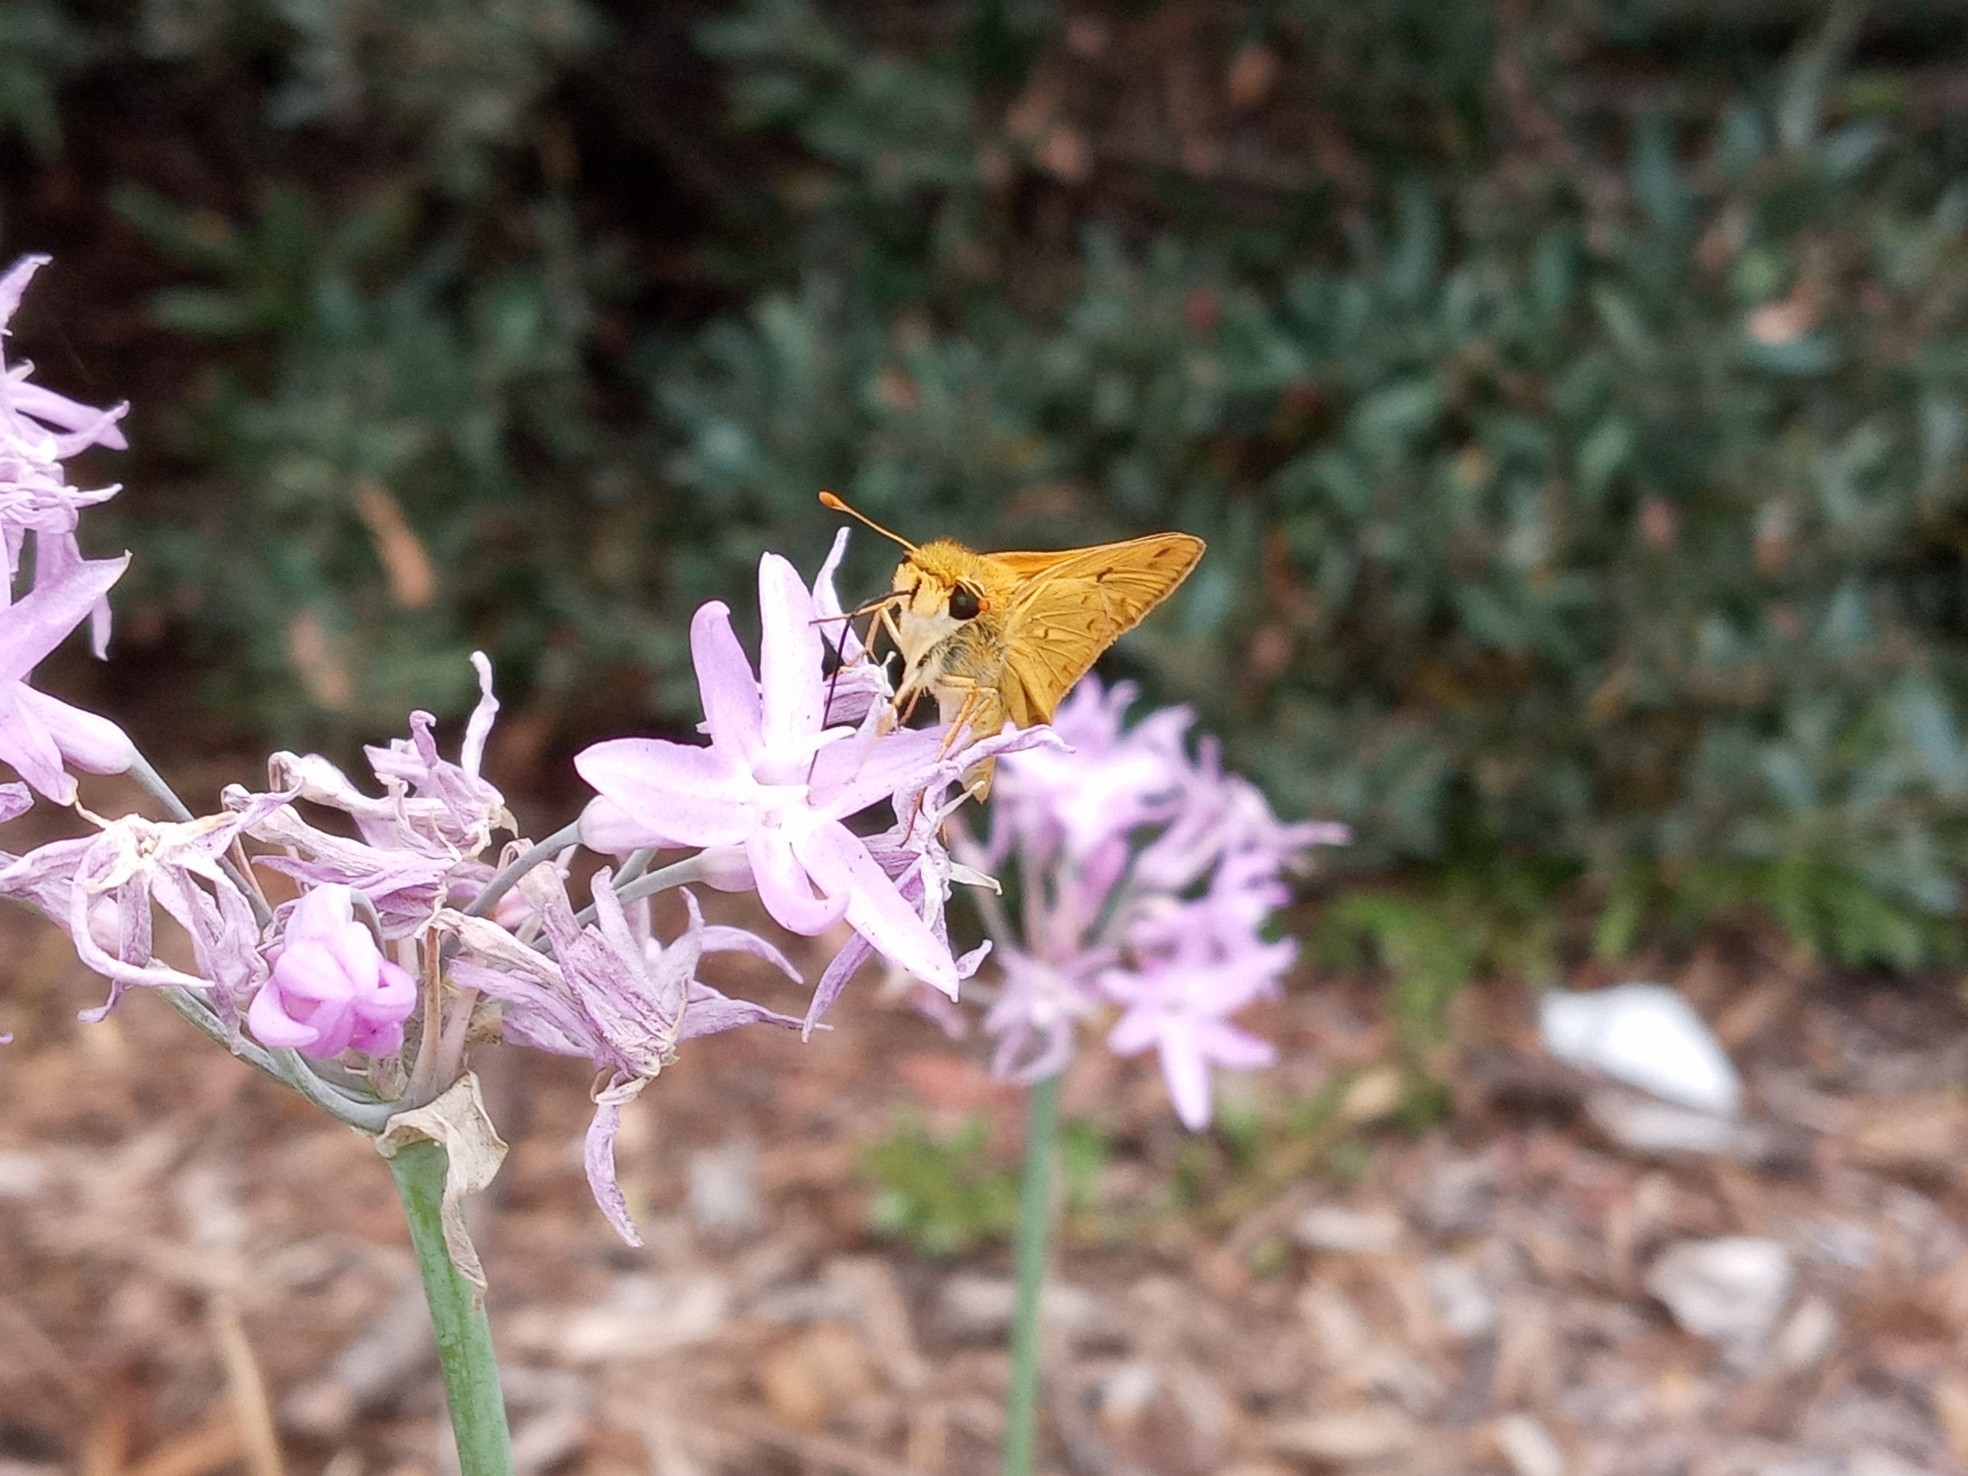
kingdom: Animalia
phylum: Arthropoda
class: Insecta
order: Lepidoptera
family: Hesperiidae
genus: Hylephila
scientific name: Hylephila phyleus
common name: Fiery skipper
